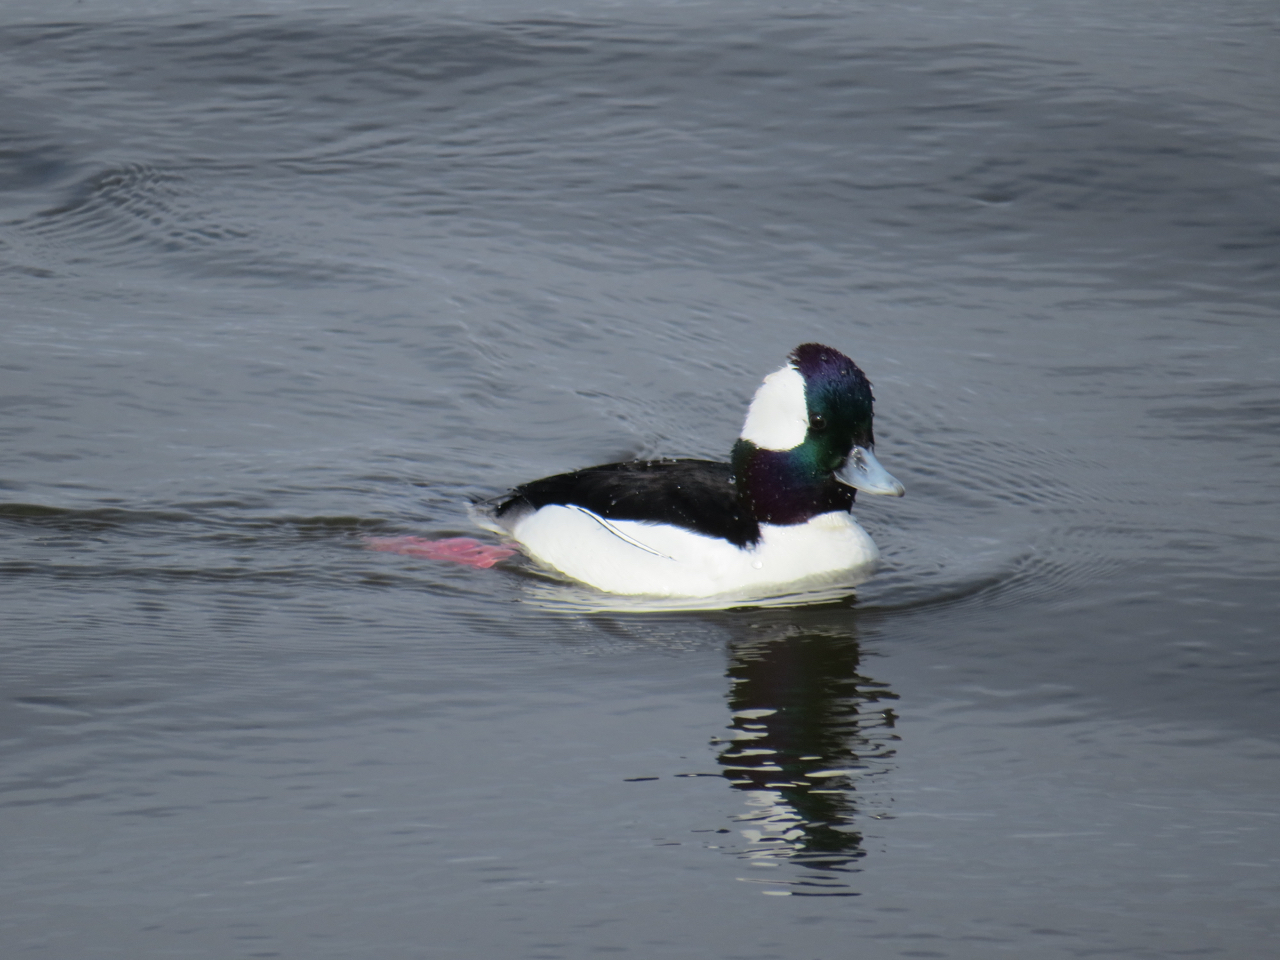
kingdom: Animalia
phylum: Chordata
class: Aves
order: Anseriformes
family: Anatidae
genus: Bucephala
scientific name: Bucephala albeola
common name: Bufflehead
